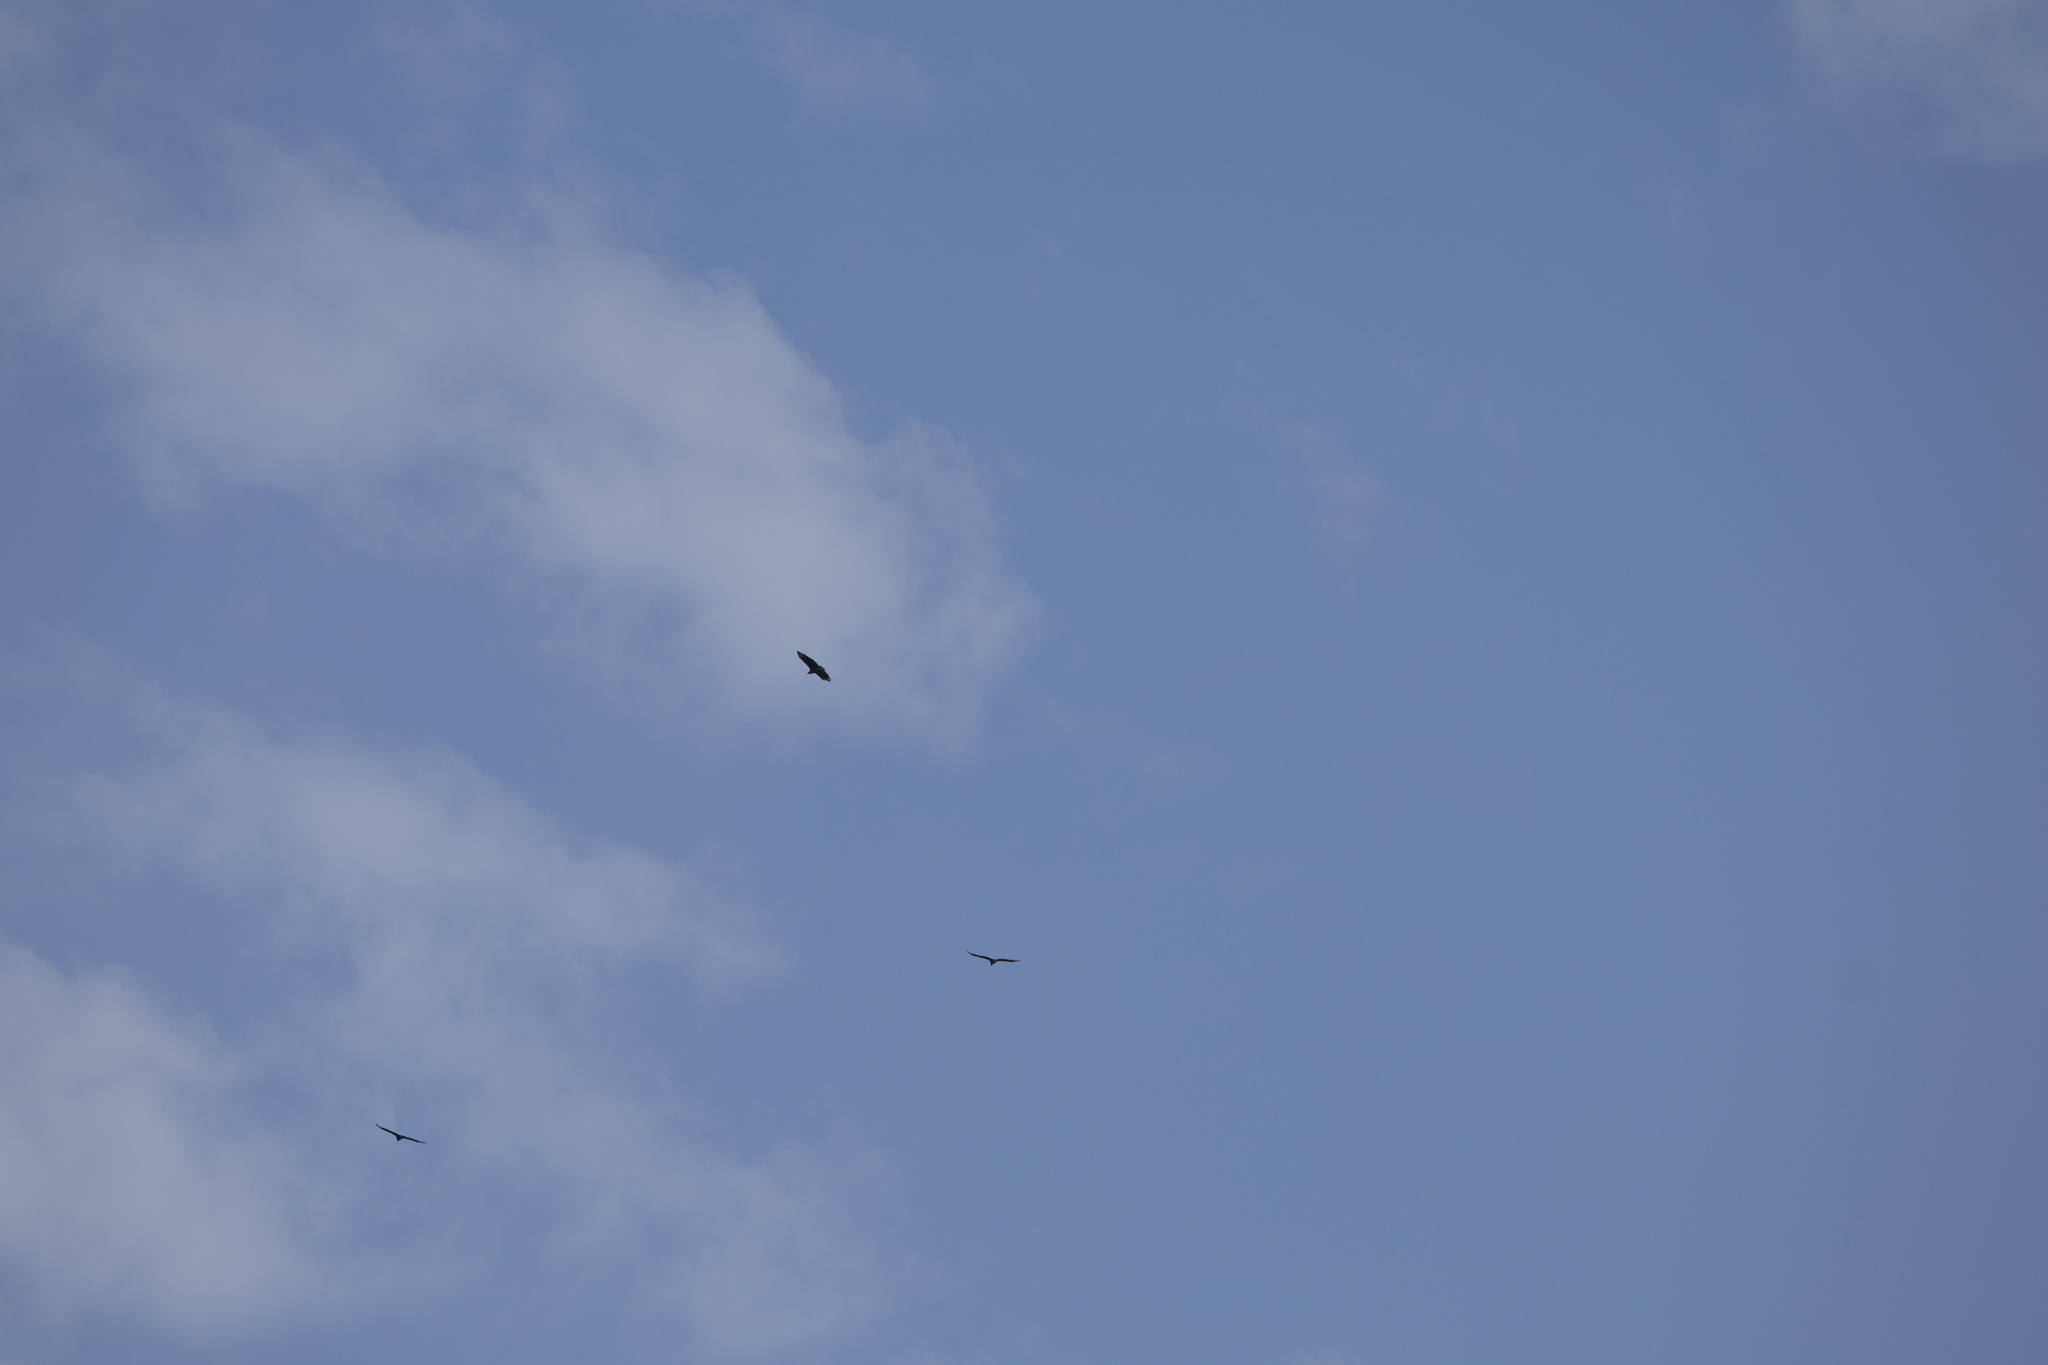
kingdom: Animalia
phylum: Chordata
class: Aves
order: Accipitriformes
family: Cathartidae
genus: Coragyps
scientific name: Coragyps atratus
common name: Black vulture
